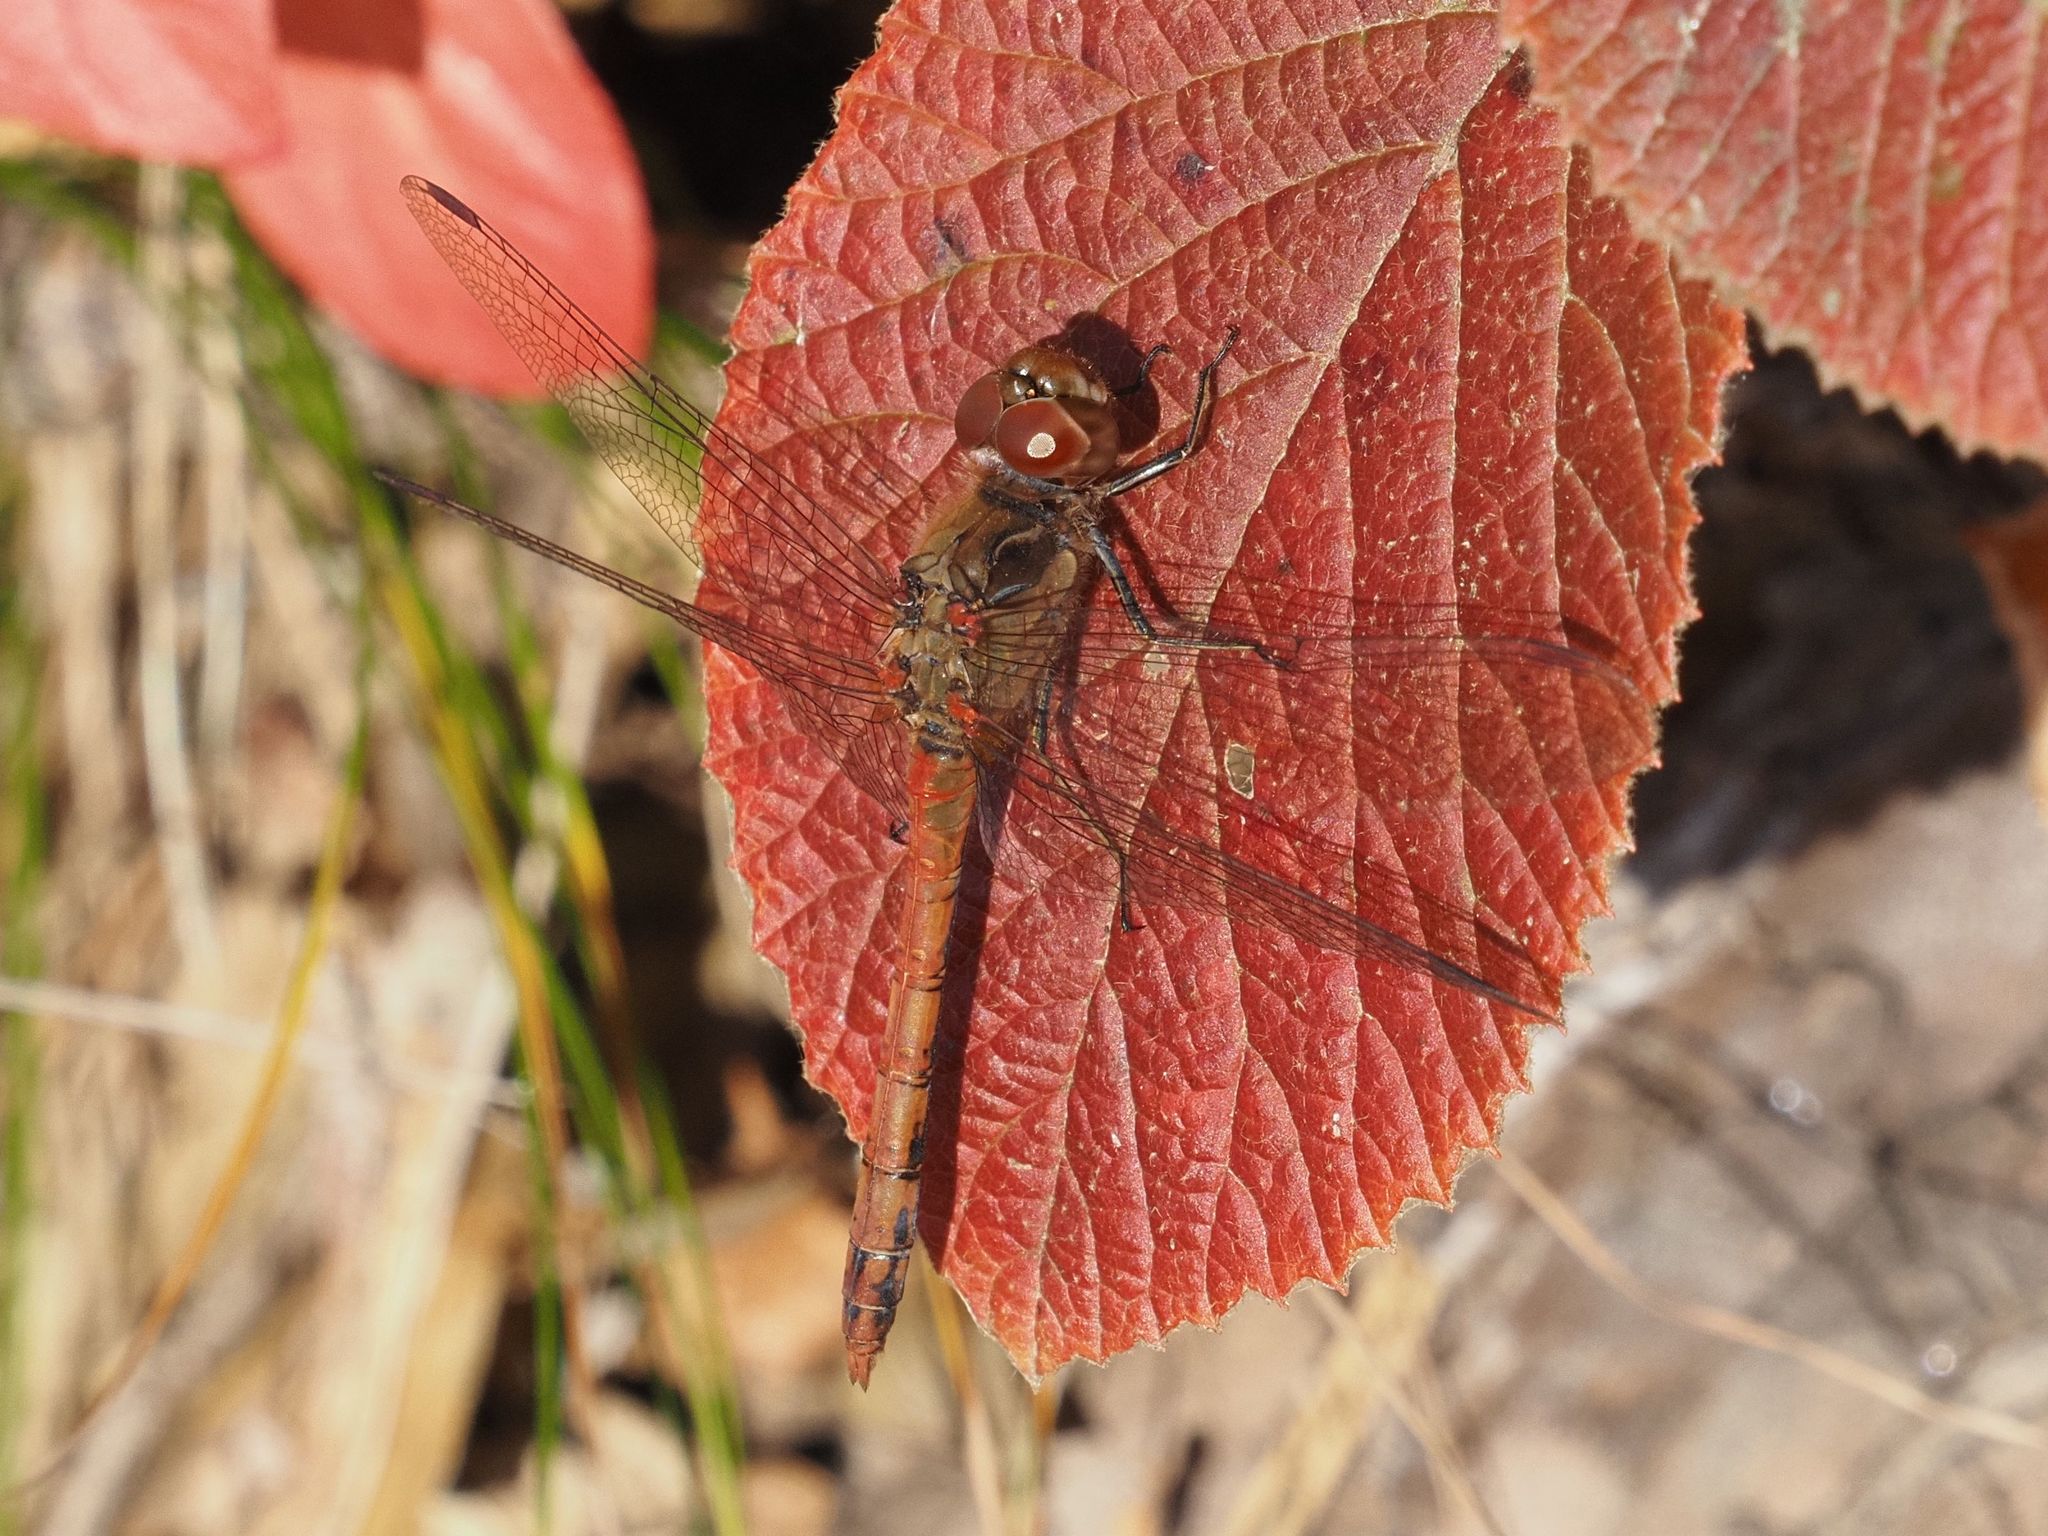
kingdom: Animalia
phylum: Arthropoda
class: Insecta
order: Odonata
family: Libellulidae
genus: Sympetrum
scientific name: Sympetrum striolatum
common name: Common darter
